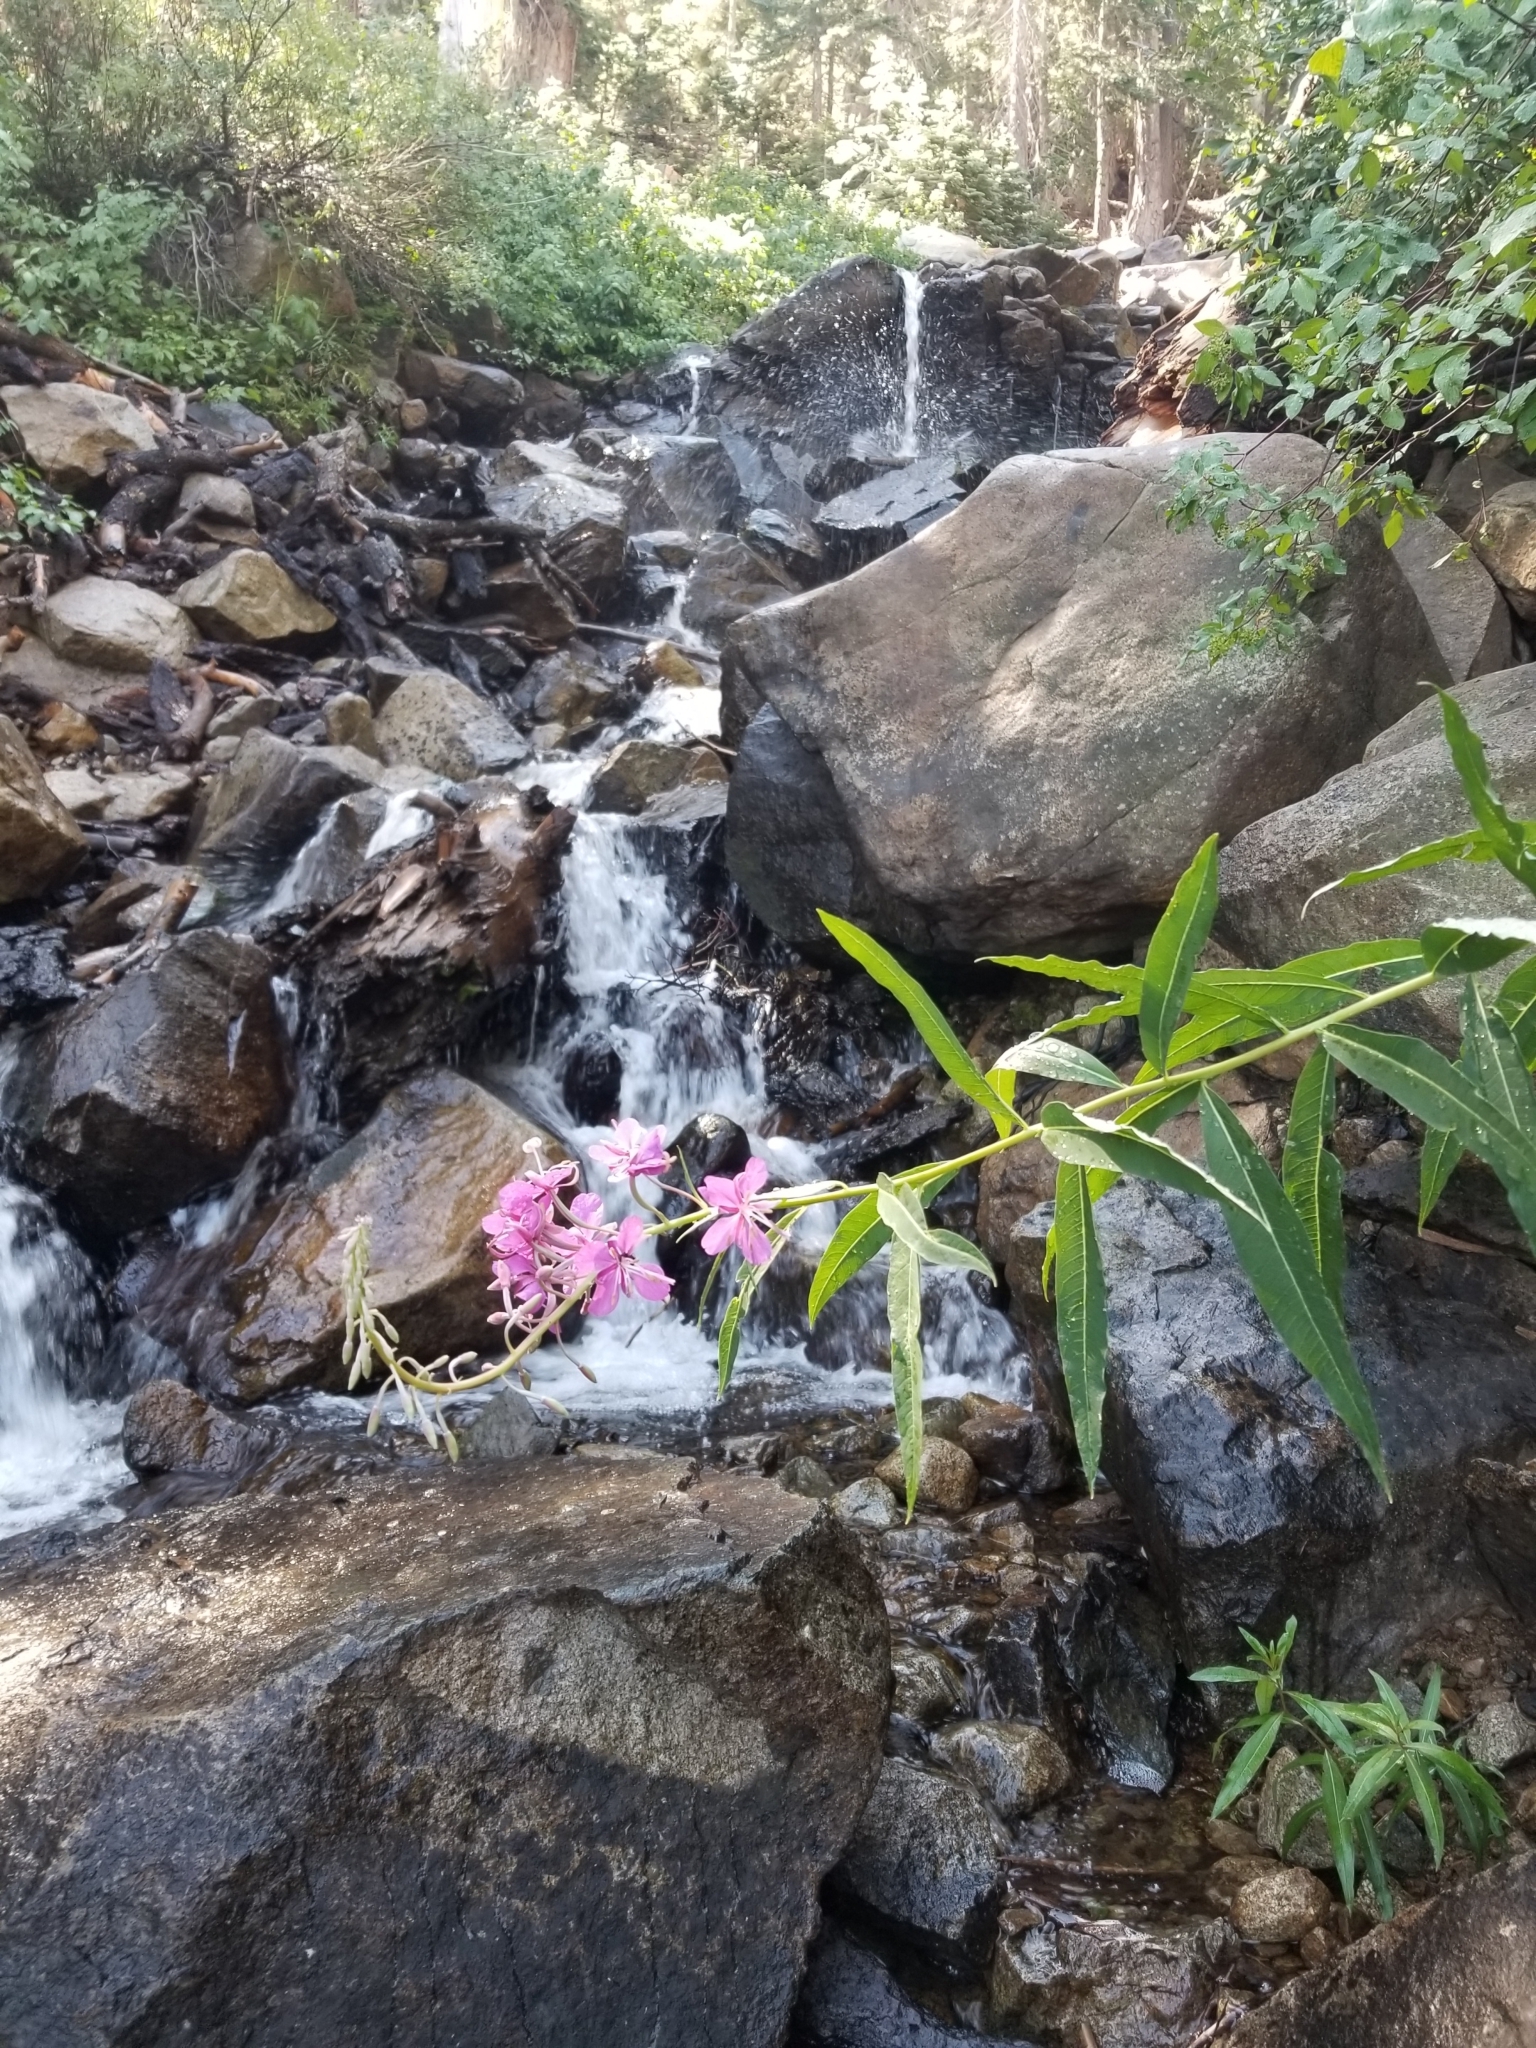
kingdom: Plantae
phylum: Tracheophyta
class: Magnoliopsida
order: Myrtales
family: Onagraceae
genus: Chamaenerion
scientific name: Chamaenerion angustifolium
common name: Fireweed
